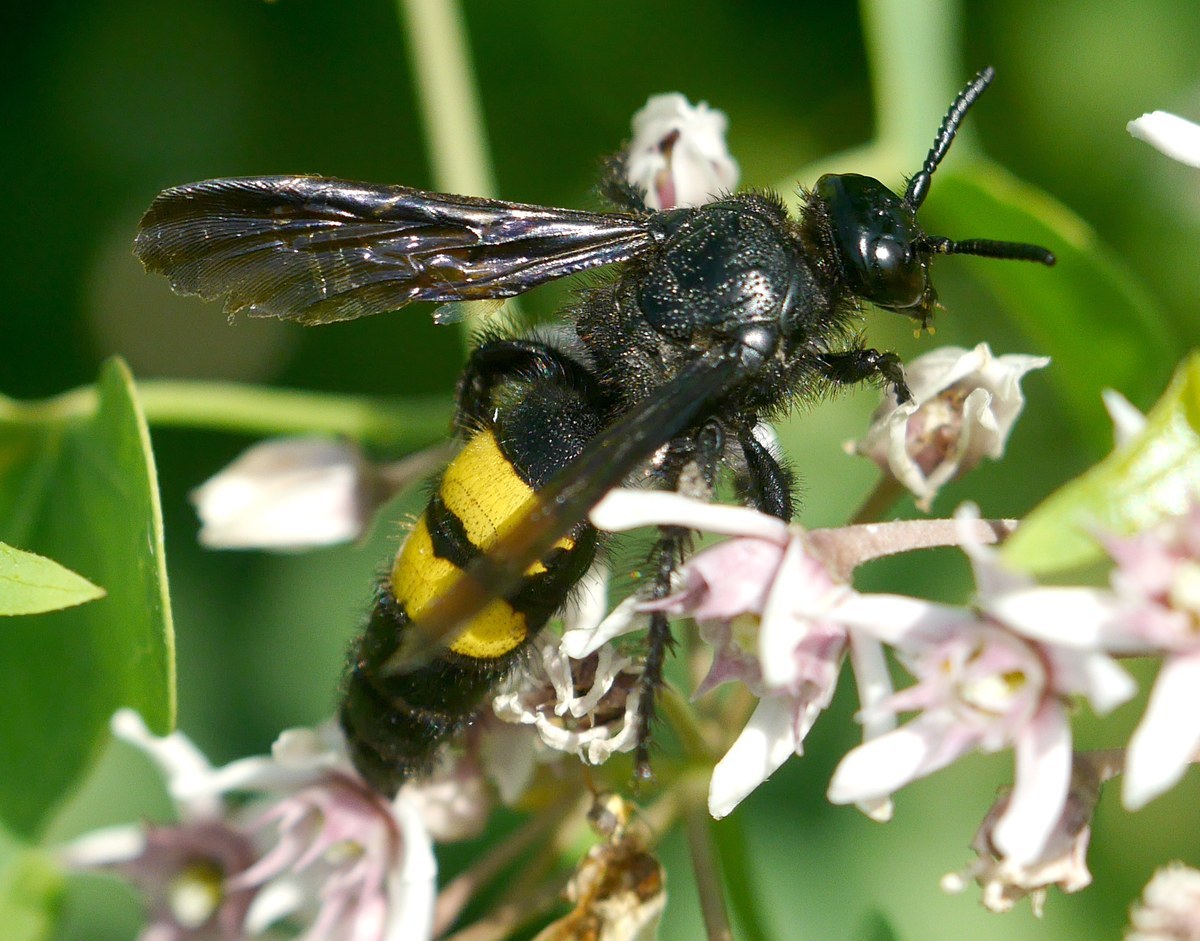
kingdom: Animalia
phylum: Arthropoda
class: Insecta
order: Hymenoptera
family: Scoliidae
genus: Scolia
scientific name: Scolia hirta
